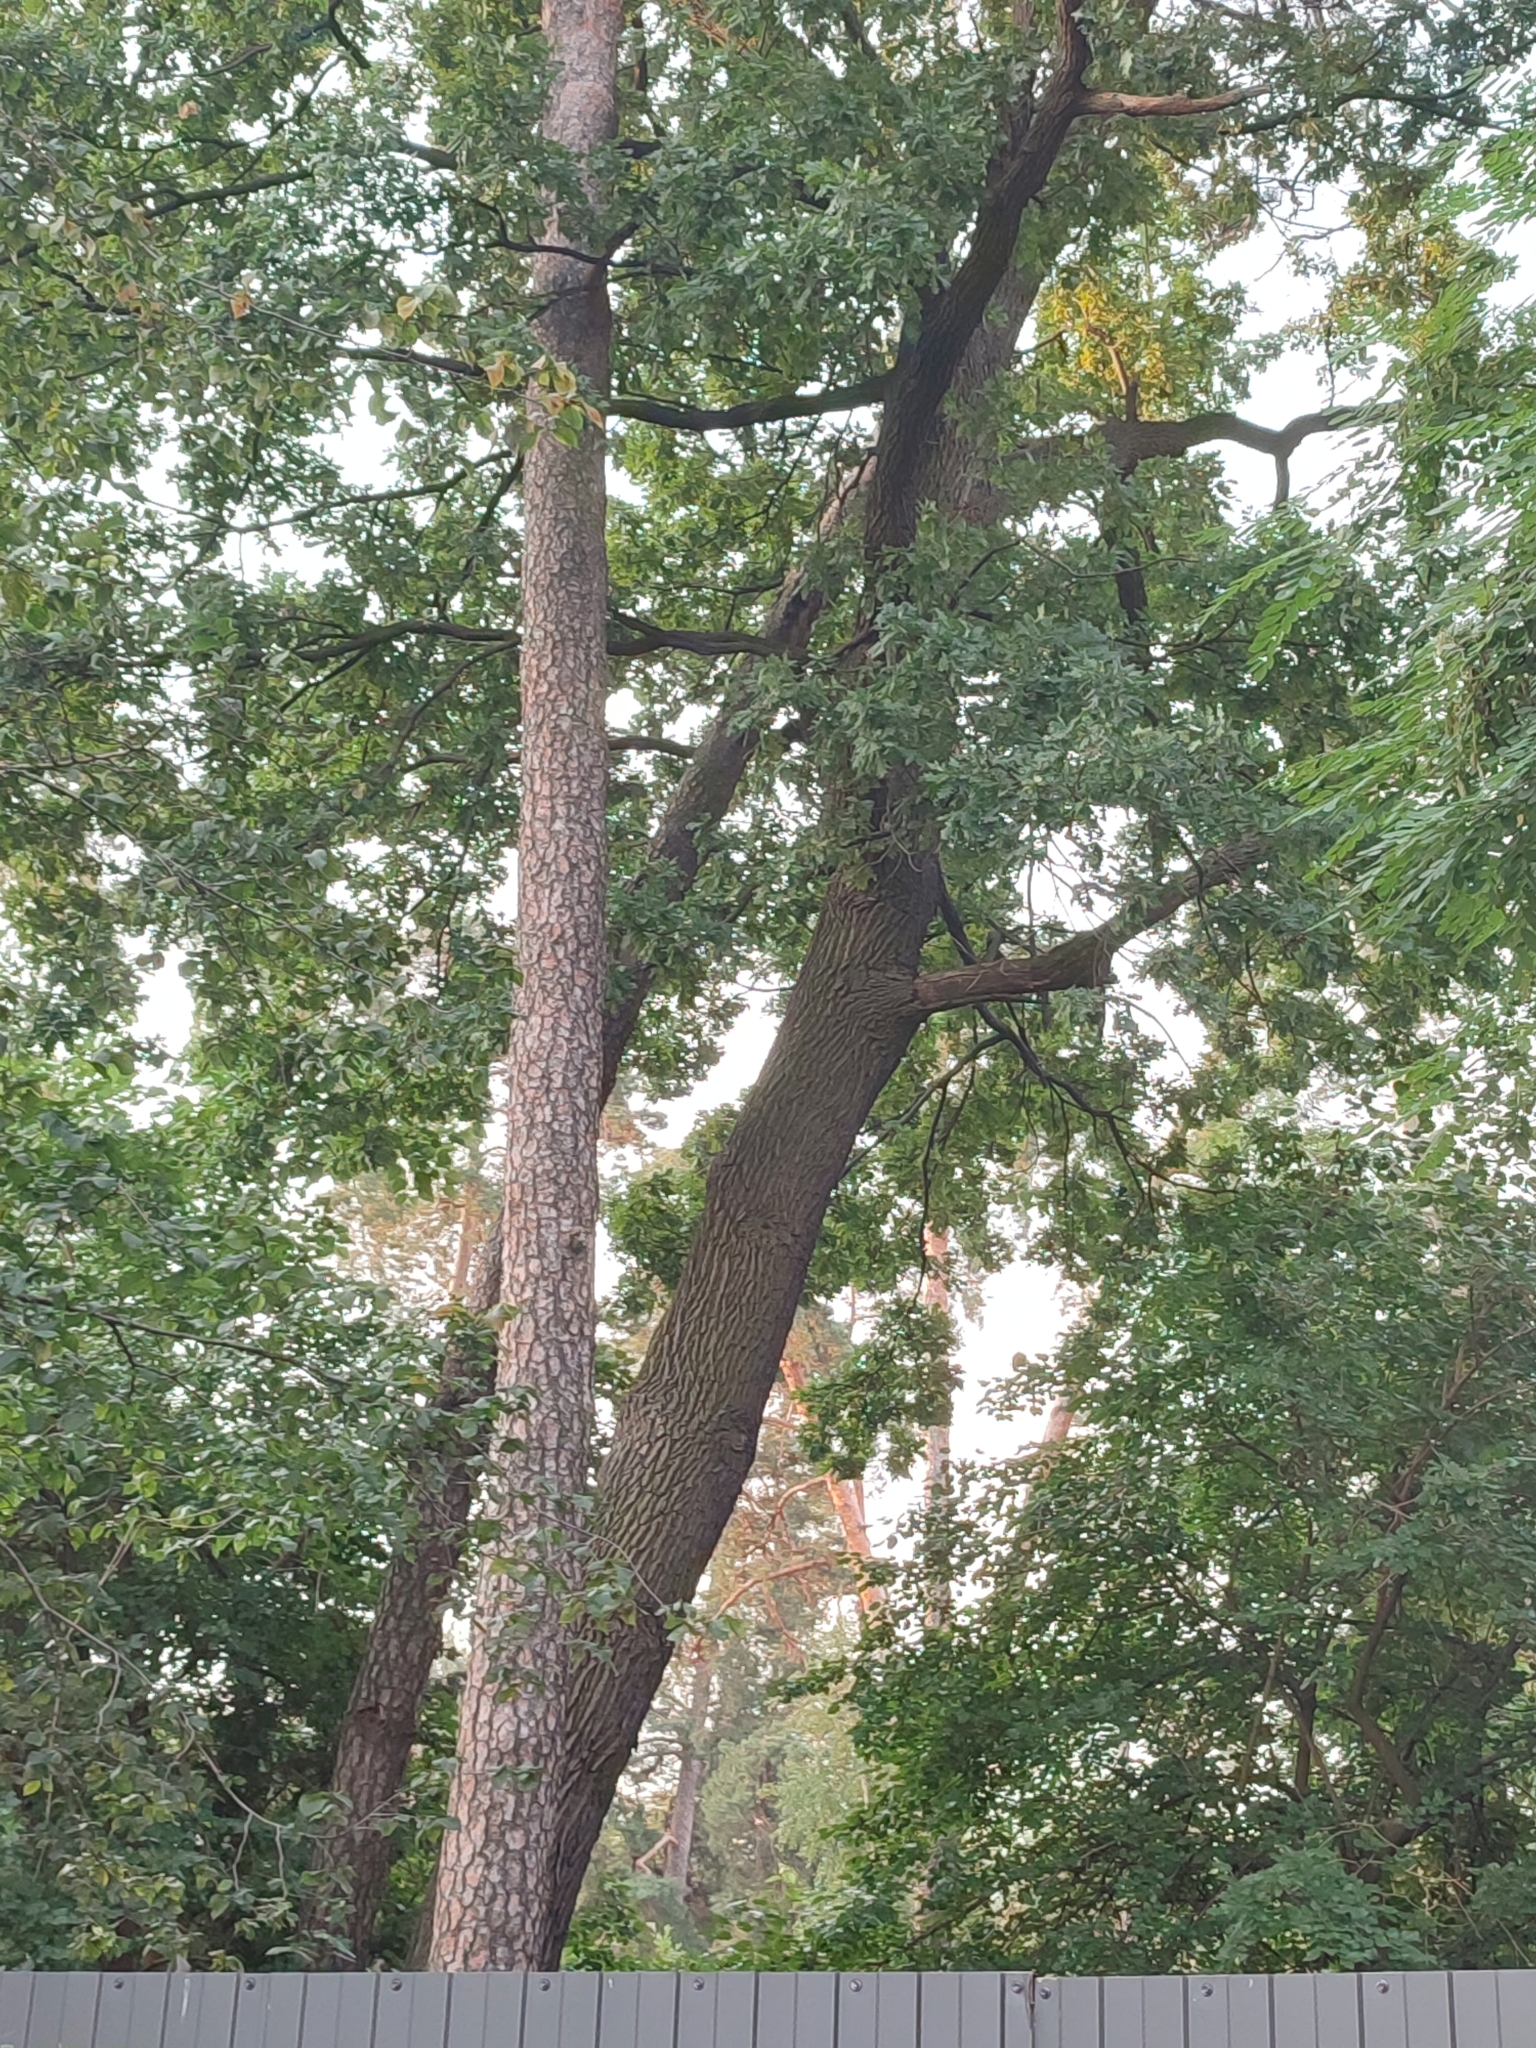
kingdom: Plantae
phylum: Tracheophyta
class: Magnoliopsida
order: Fagales
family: Fagaceae
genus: Quercus
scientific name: Quercus robur
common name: Pedunculate oak
